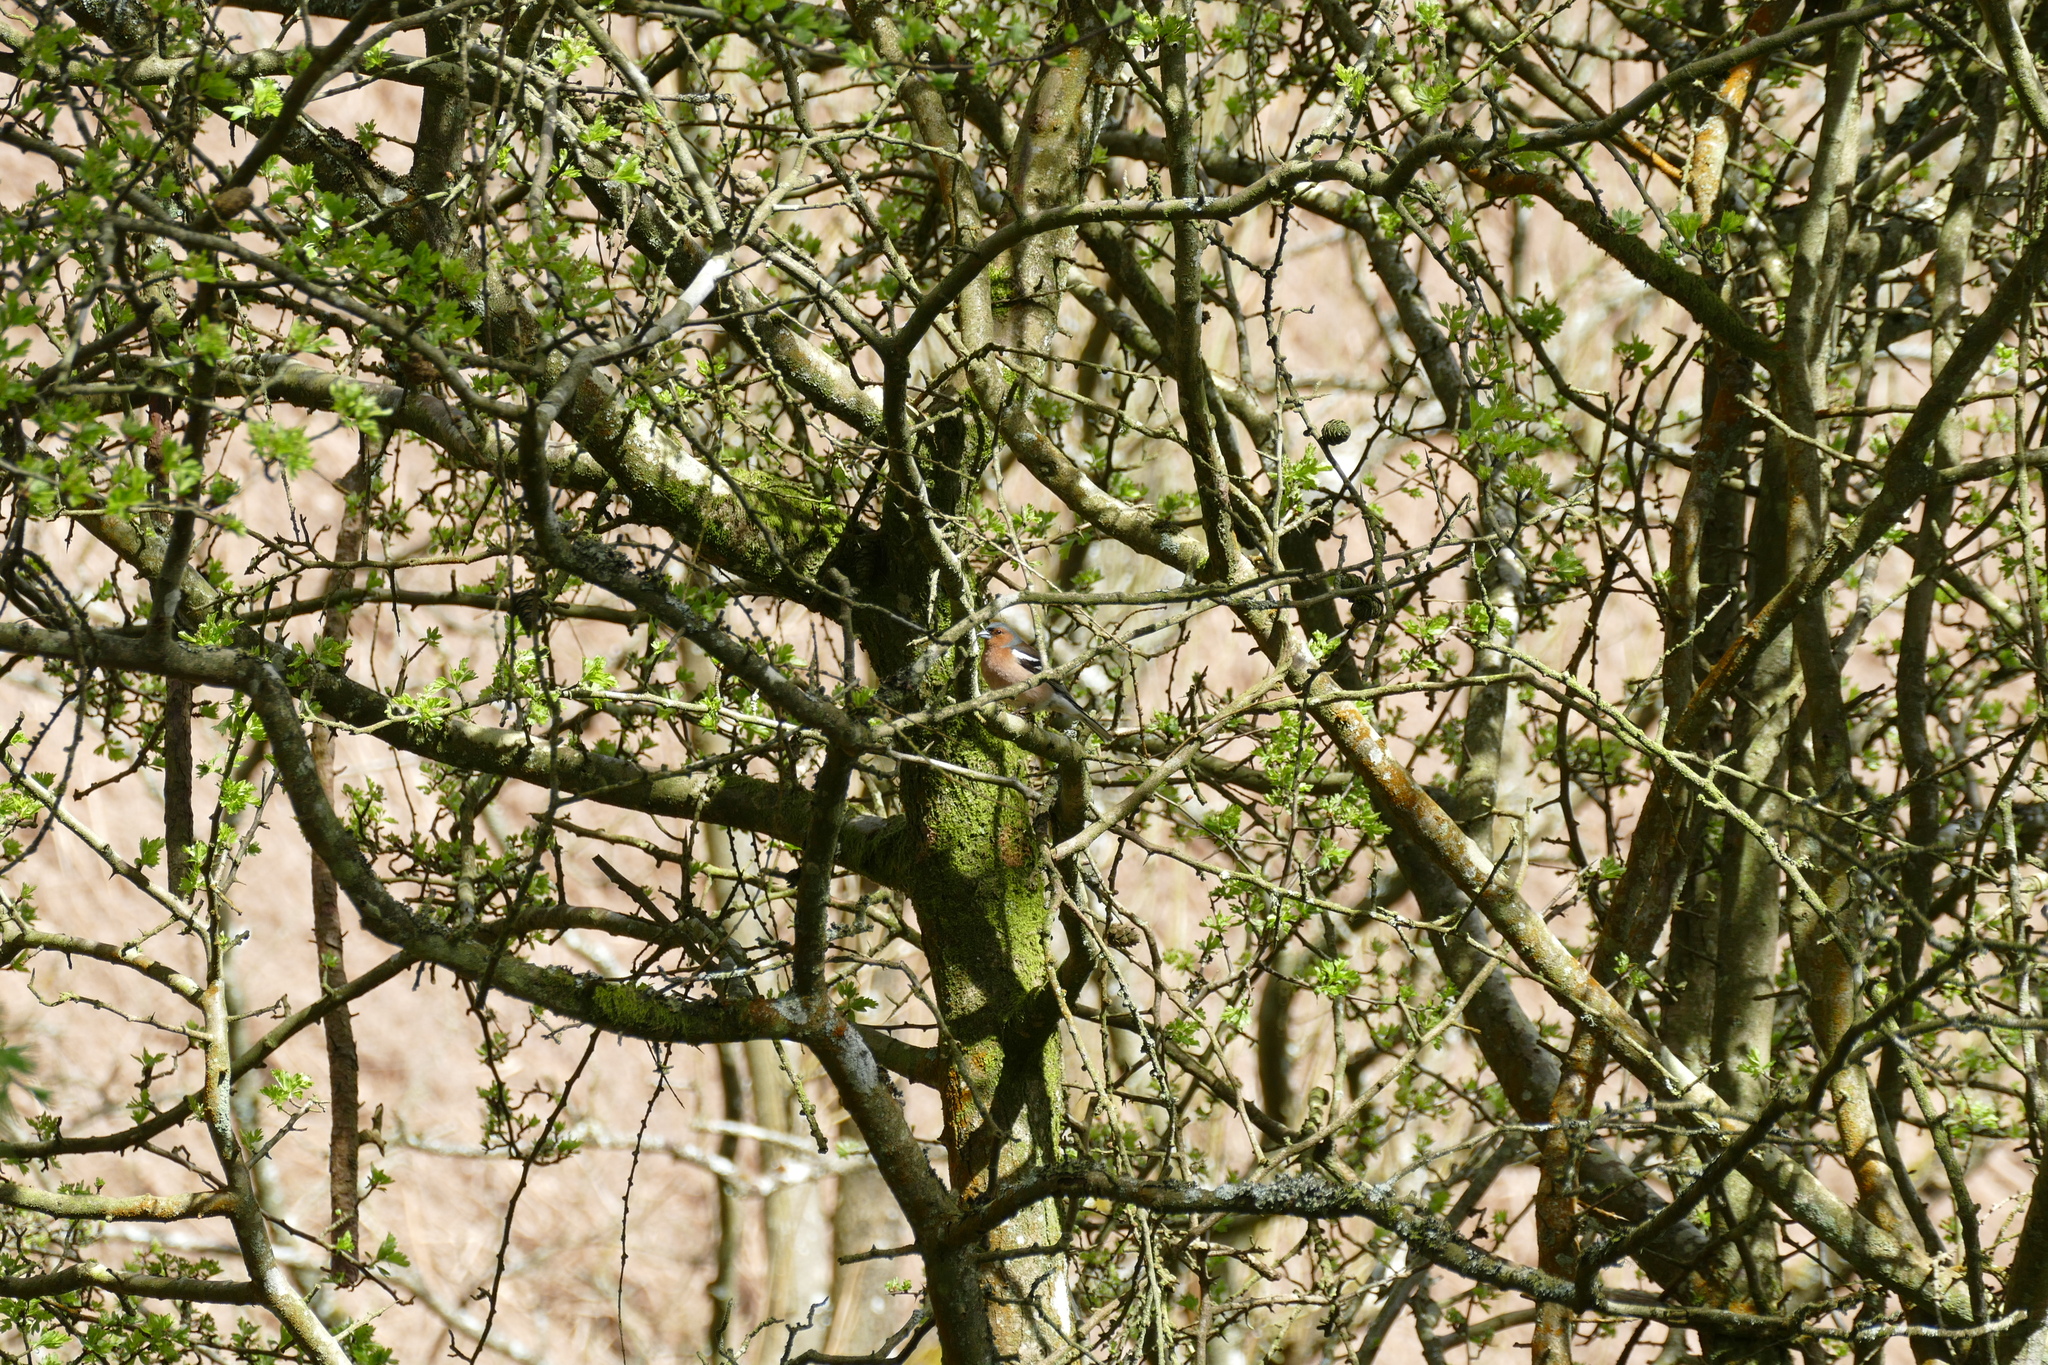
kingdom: Animalia
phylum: Chordata
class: Aves
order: Passeriformes
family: Fringillidae
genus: Fringilla
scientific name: Fringilla coelebs
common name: Common chaffinch
